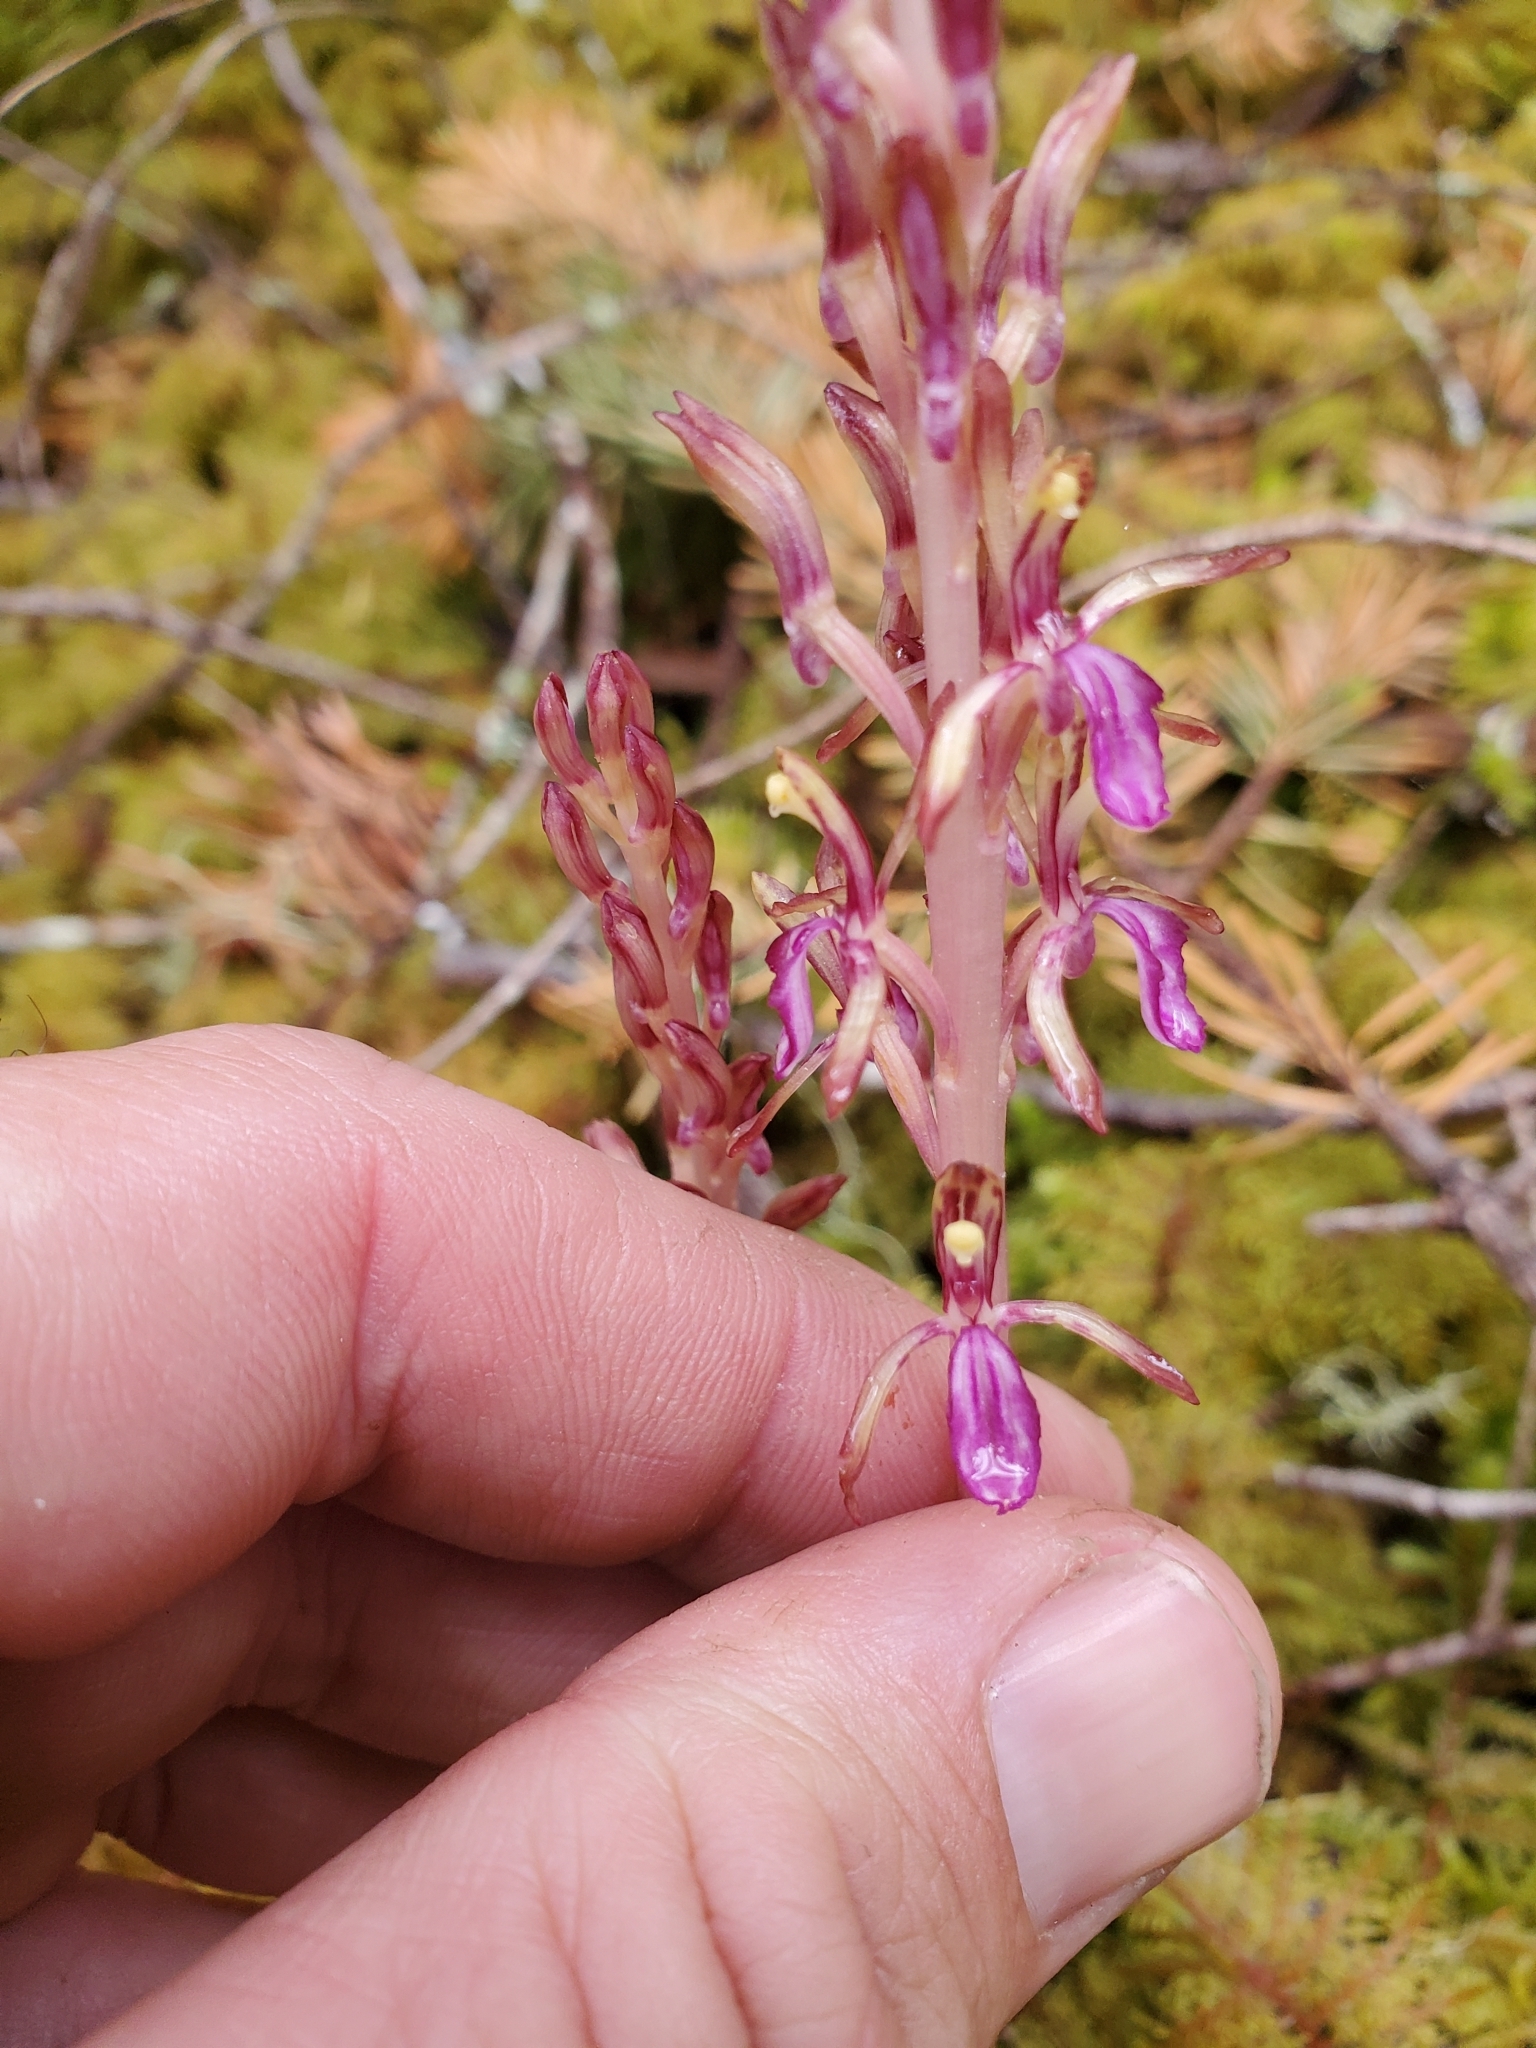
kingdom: Plantae
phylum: Tracheophyta
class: Liliopsida
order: Asparagales
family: Orchidaceae
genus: Corallorhiza
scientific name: Corallorhiza mertensiana
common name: Pacific coralroot
